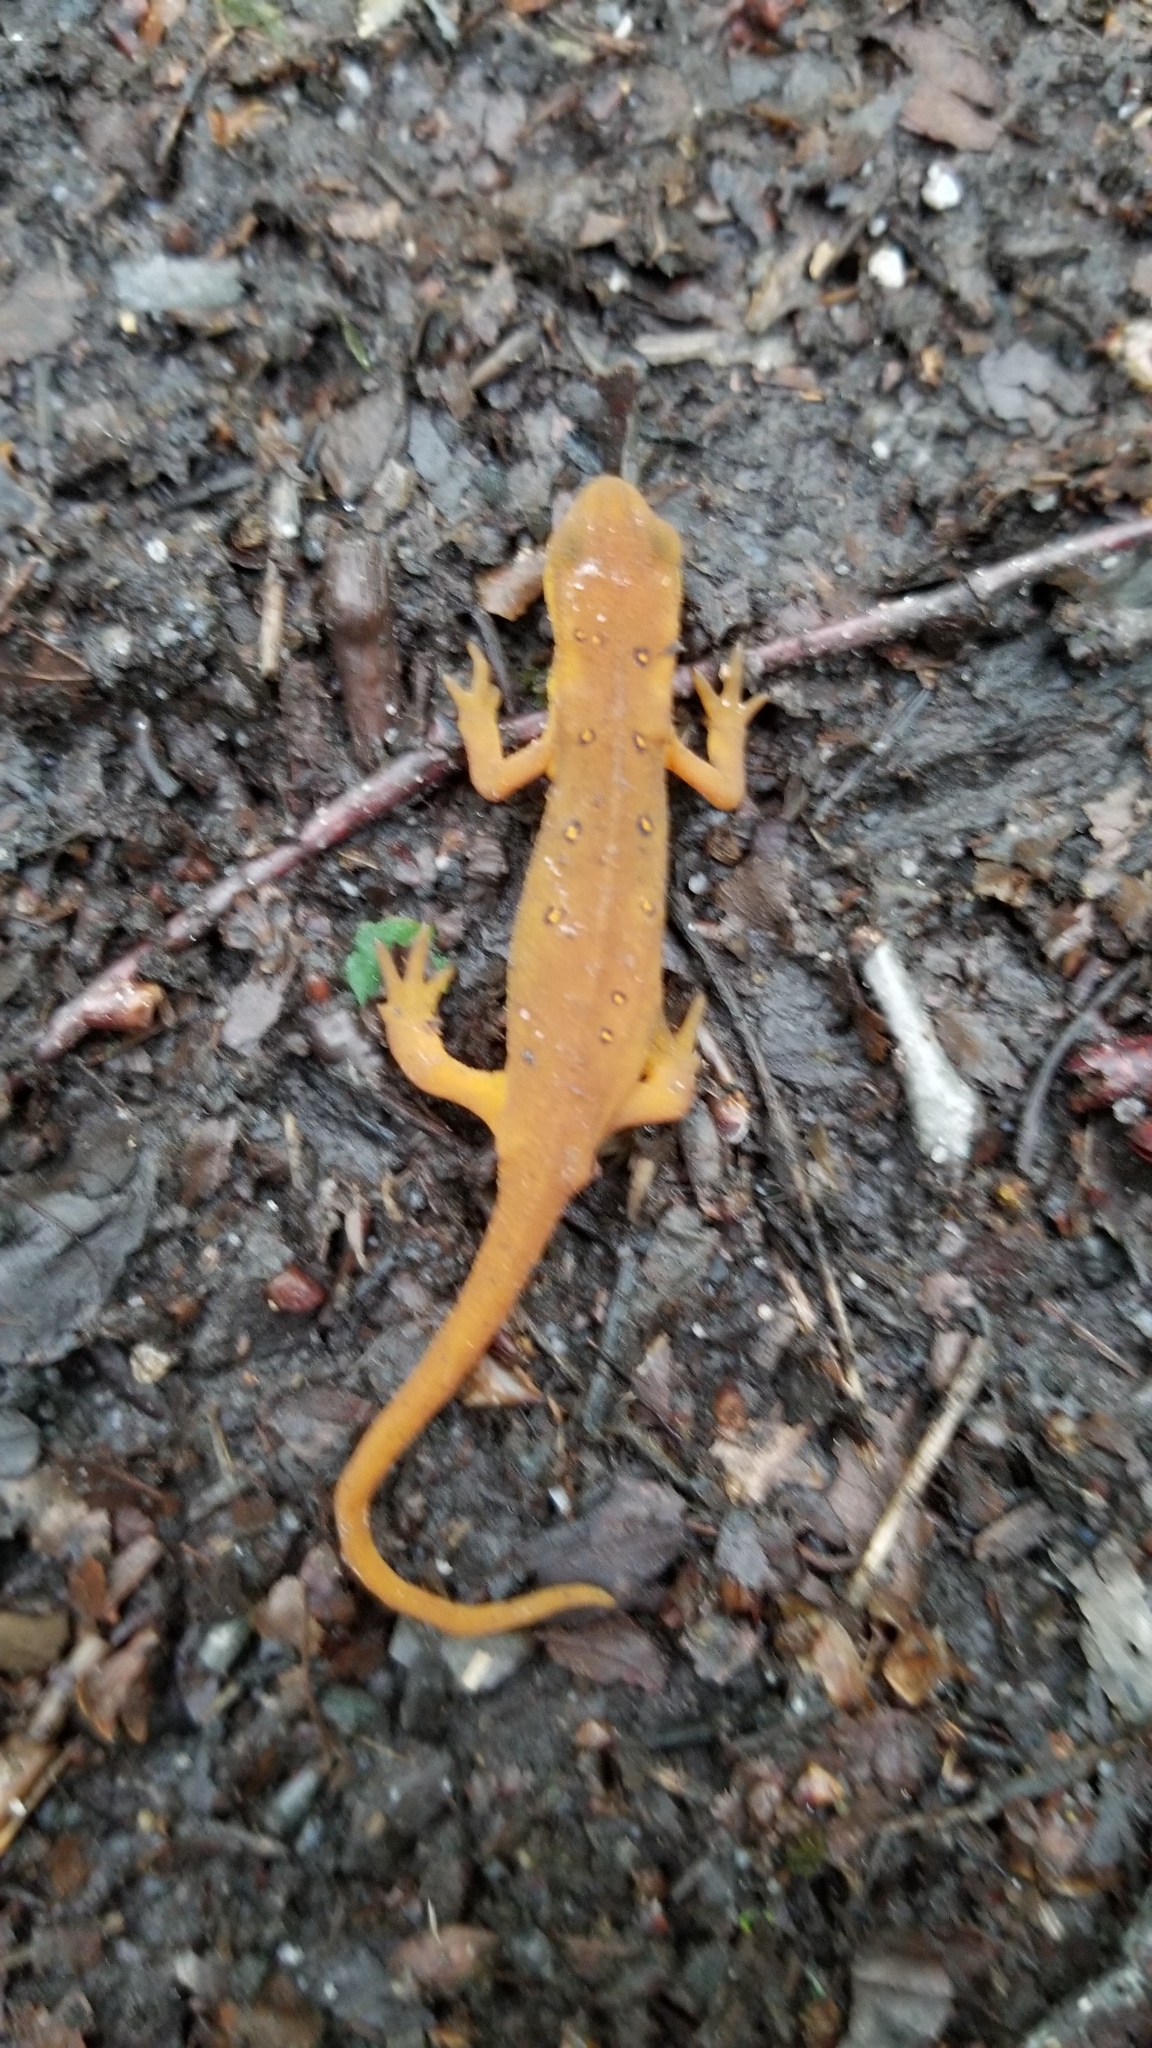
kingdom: Animalia
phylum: Chordata
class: Amphibia
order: Caudata
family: Salamandridae
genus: Notophthalmus
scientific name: Notophthalmus viridescens
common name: Eastern newt
